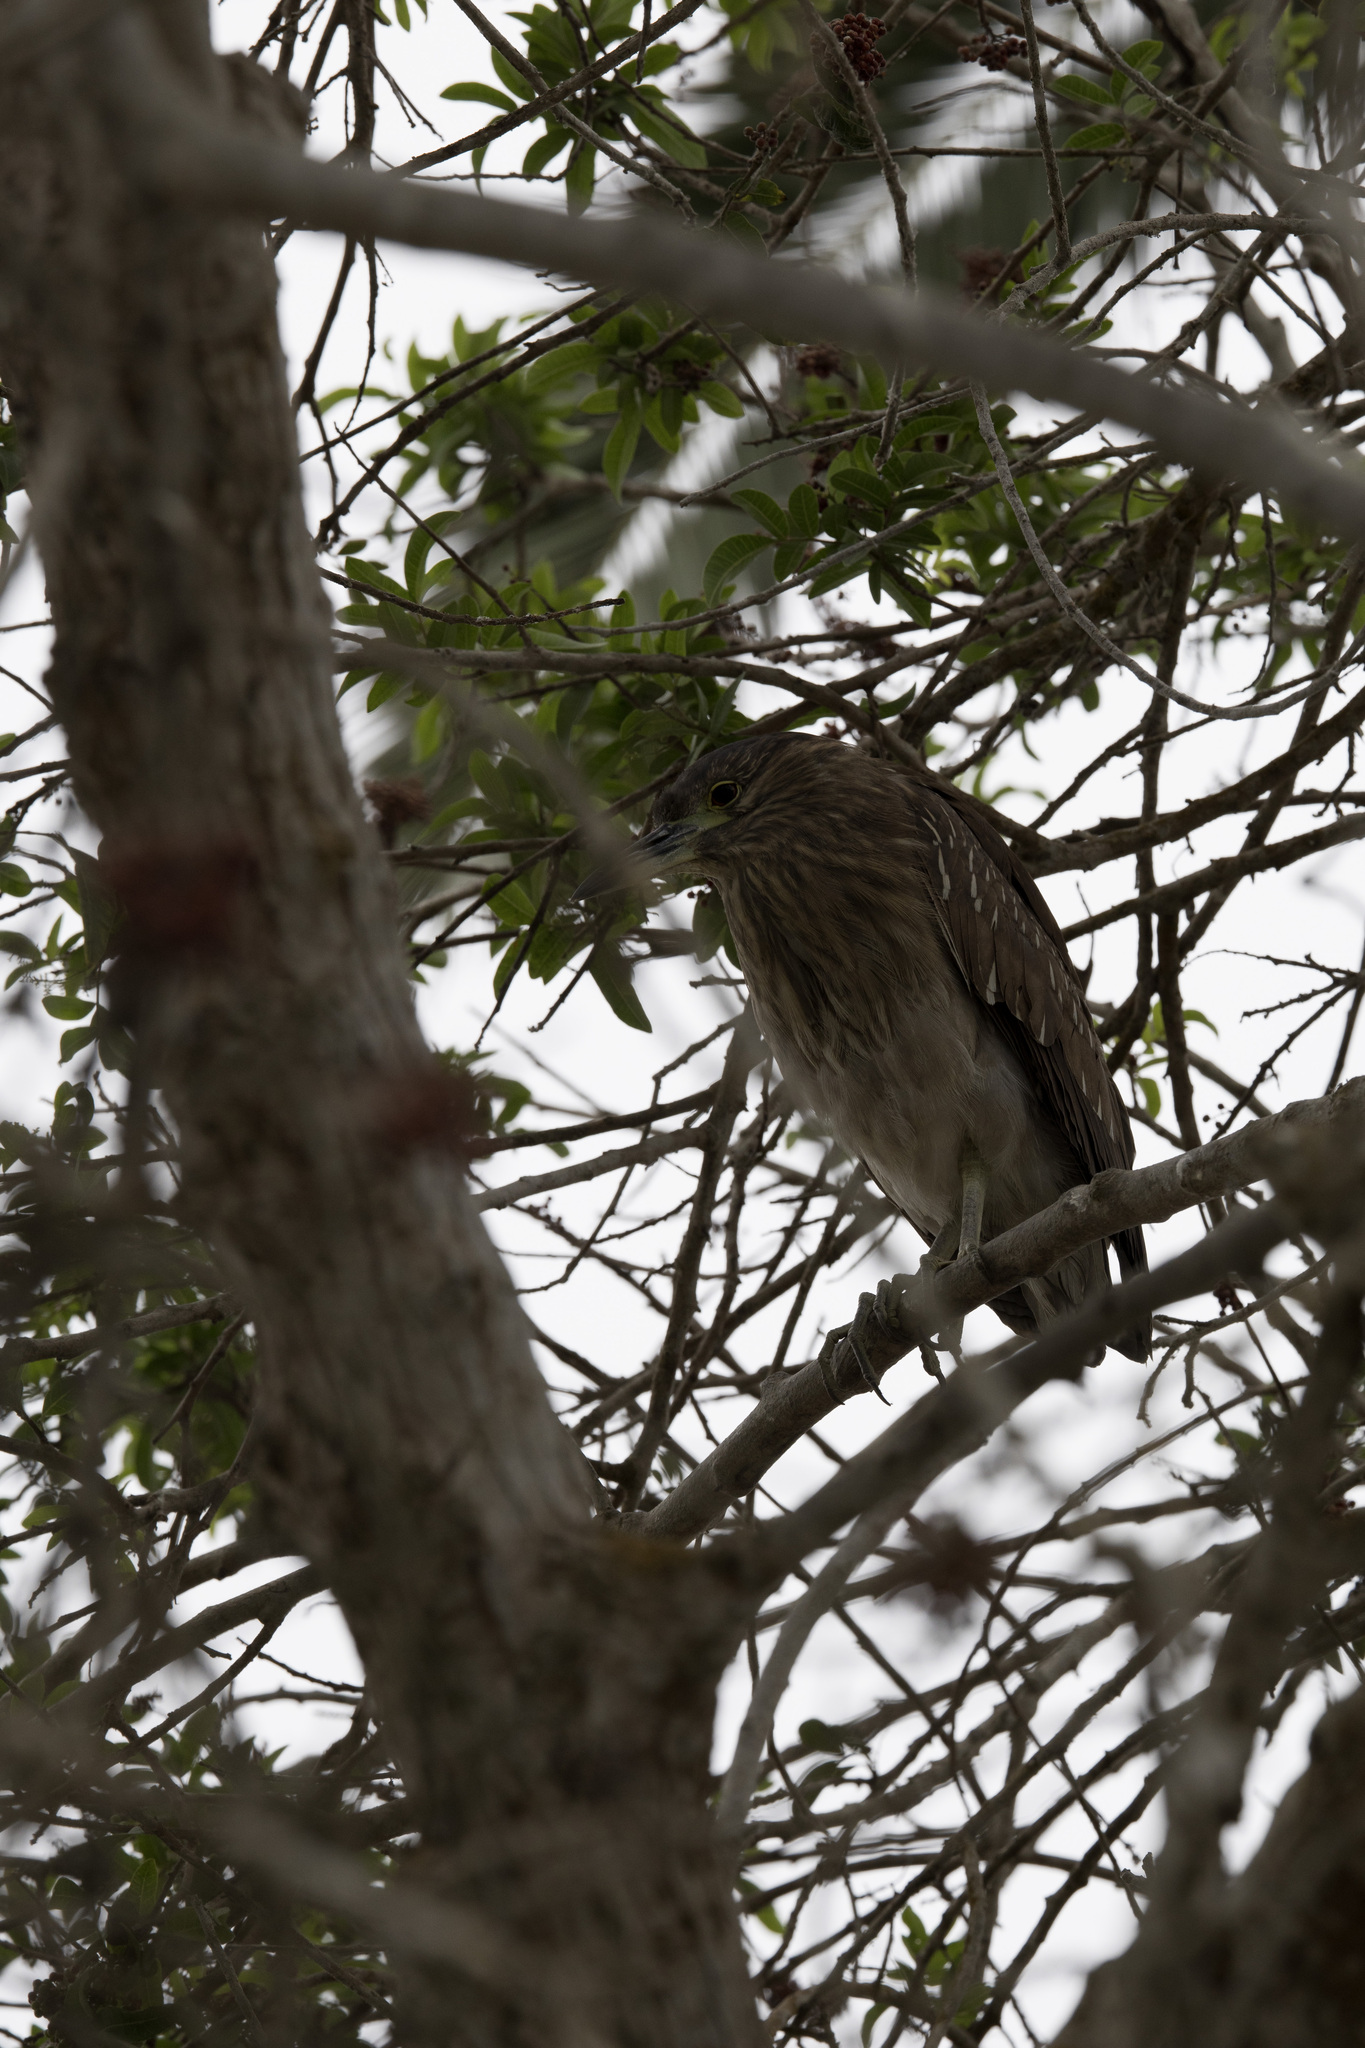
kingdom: Animalia
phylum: Chordata
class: Aves
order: Pelecaniformes
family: Ardeidae
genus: Nycticorax
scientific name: Nycticorax nycticorax
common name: Black-crowned night heron
